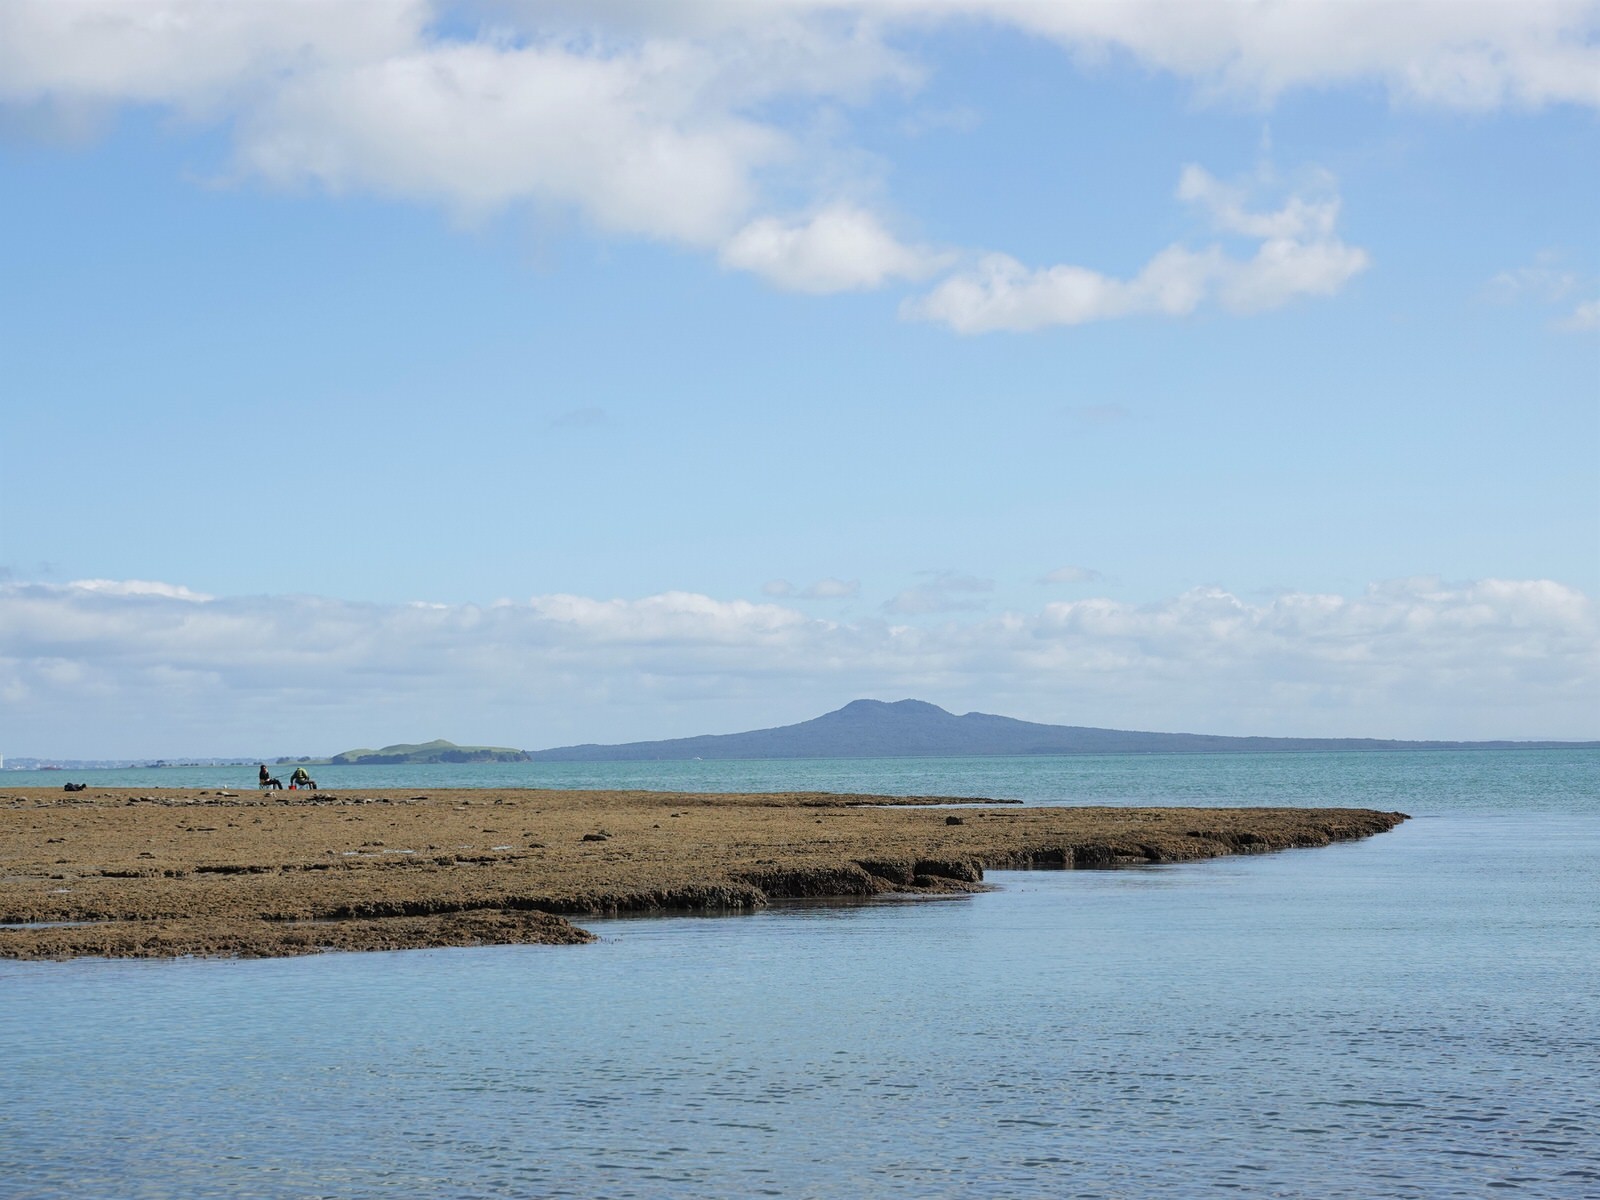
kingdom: Animalia
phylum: Chordata
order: Perciformes
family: Sparidae
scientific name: Sparidae
